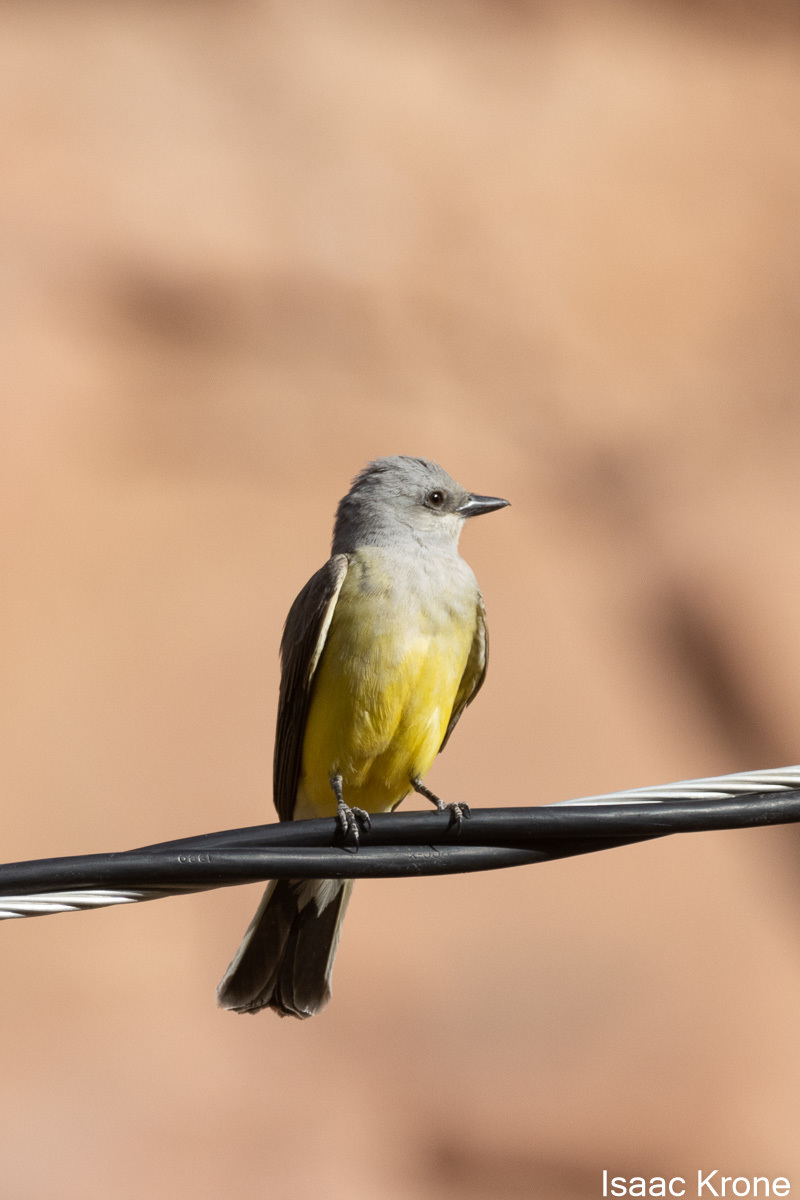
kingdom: Animalia
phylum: Chordata
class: Aves
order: Passeriformes
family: Tyrannidae
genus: Tyrannus
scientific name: Tyrannus verticalis
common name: Western kingbird
